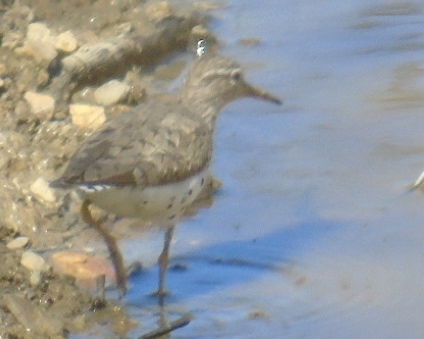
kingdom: Animalia
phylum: Chordata
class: Aves
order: Charadriiformes
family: Scolopacidae
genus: Actitis
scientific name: Actitis macularius
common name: Spotted sandpiper
